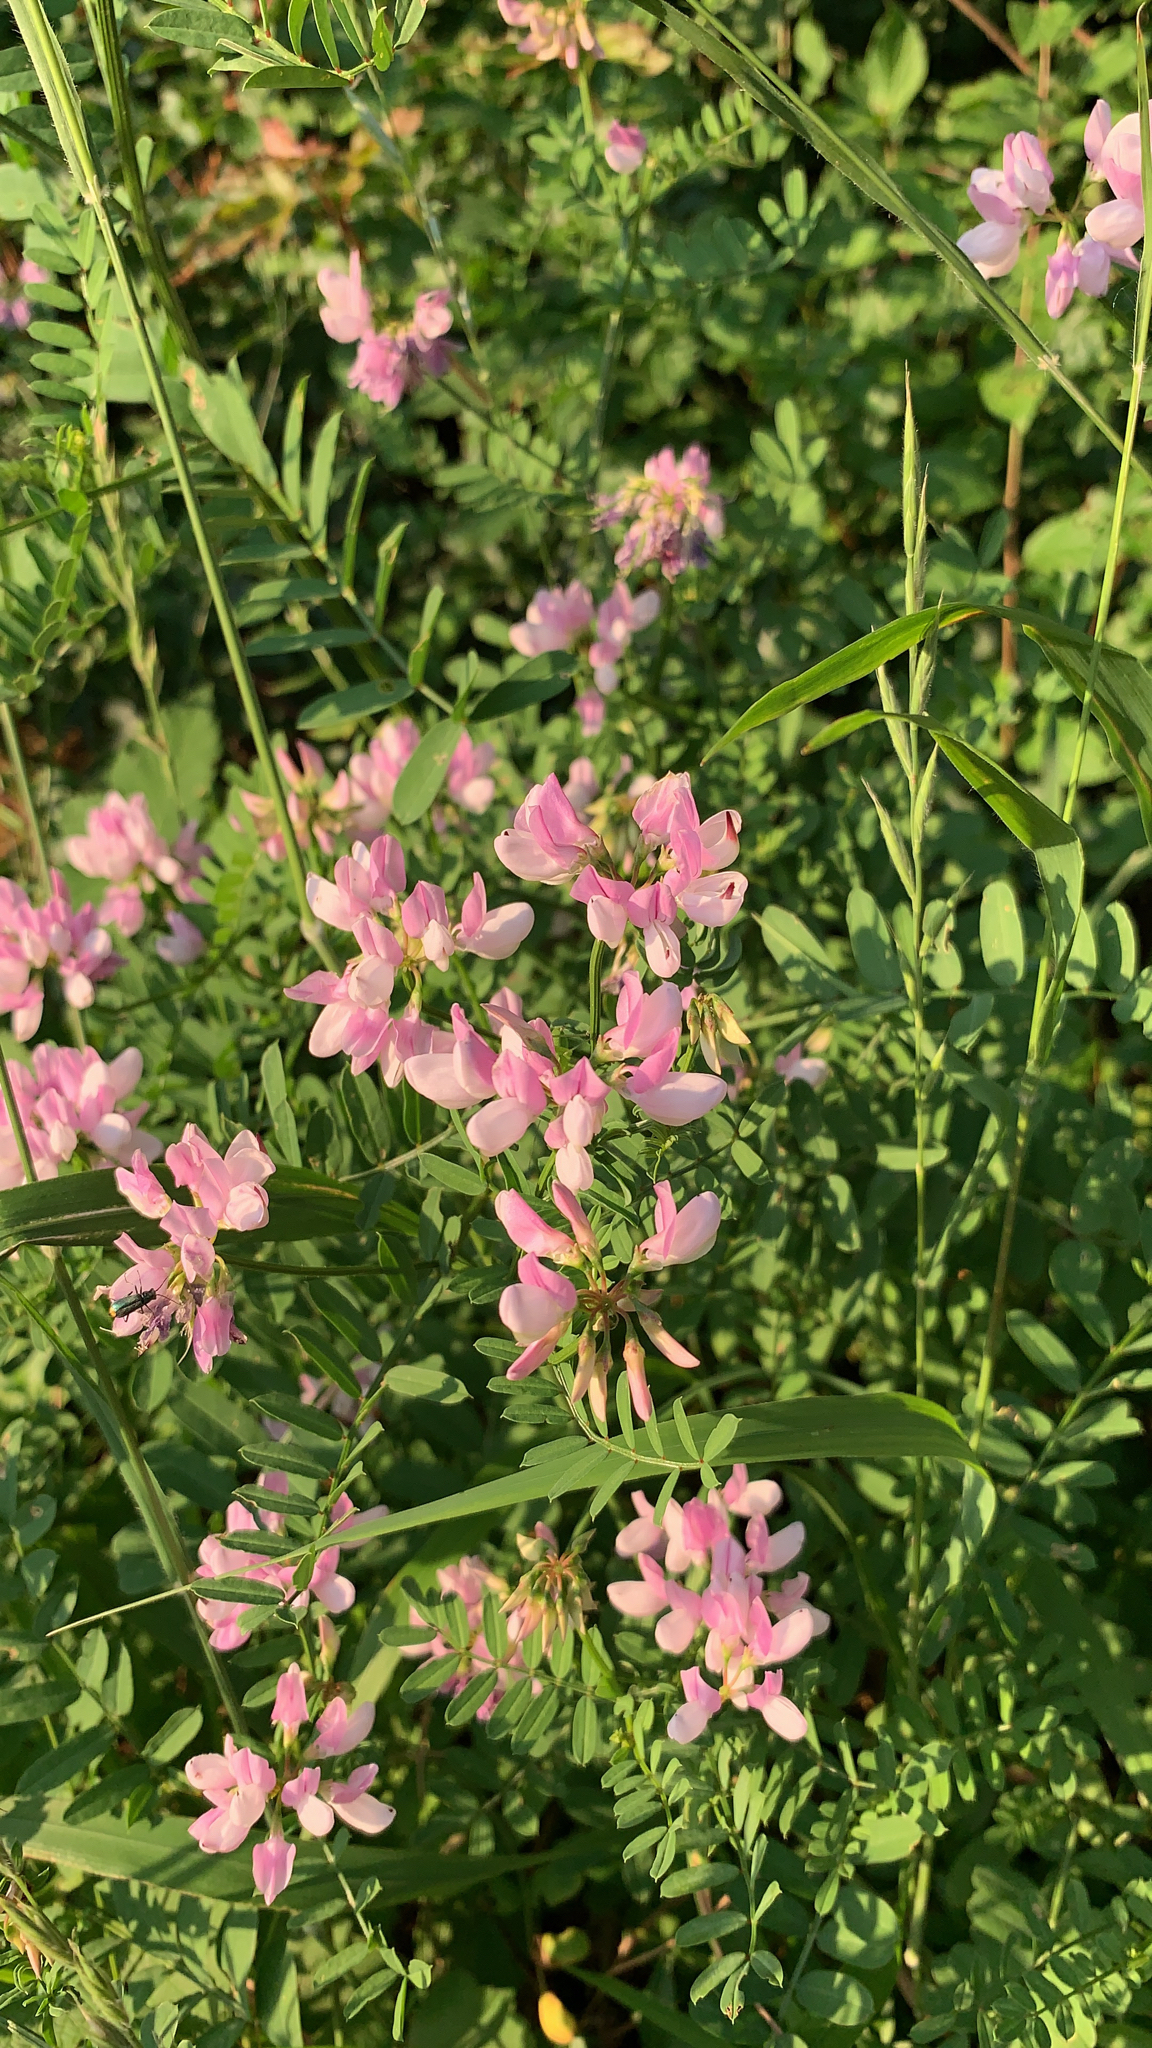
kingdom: Plantae
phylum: Tracheophyta
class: Magnoliopsida
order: Fabales
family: Fabaceae
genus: Coronilla
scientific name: Coronilla varia
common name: Crownvetch
